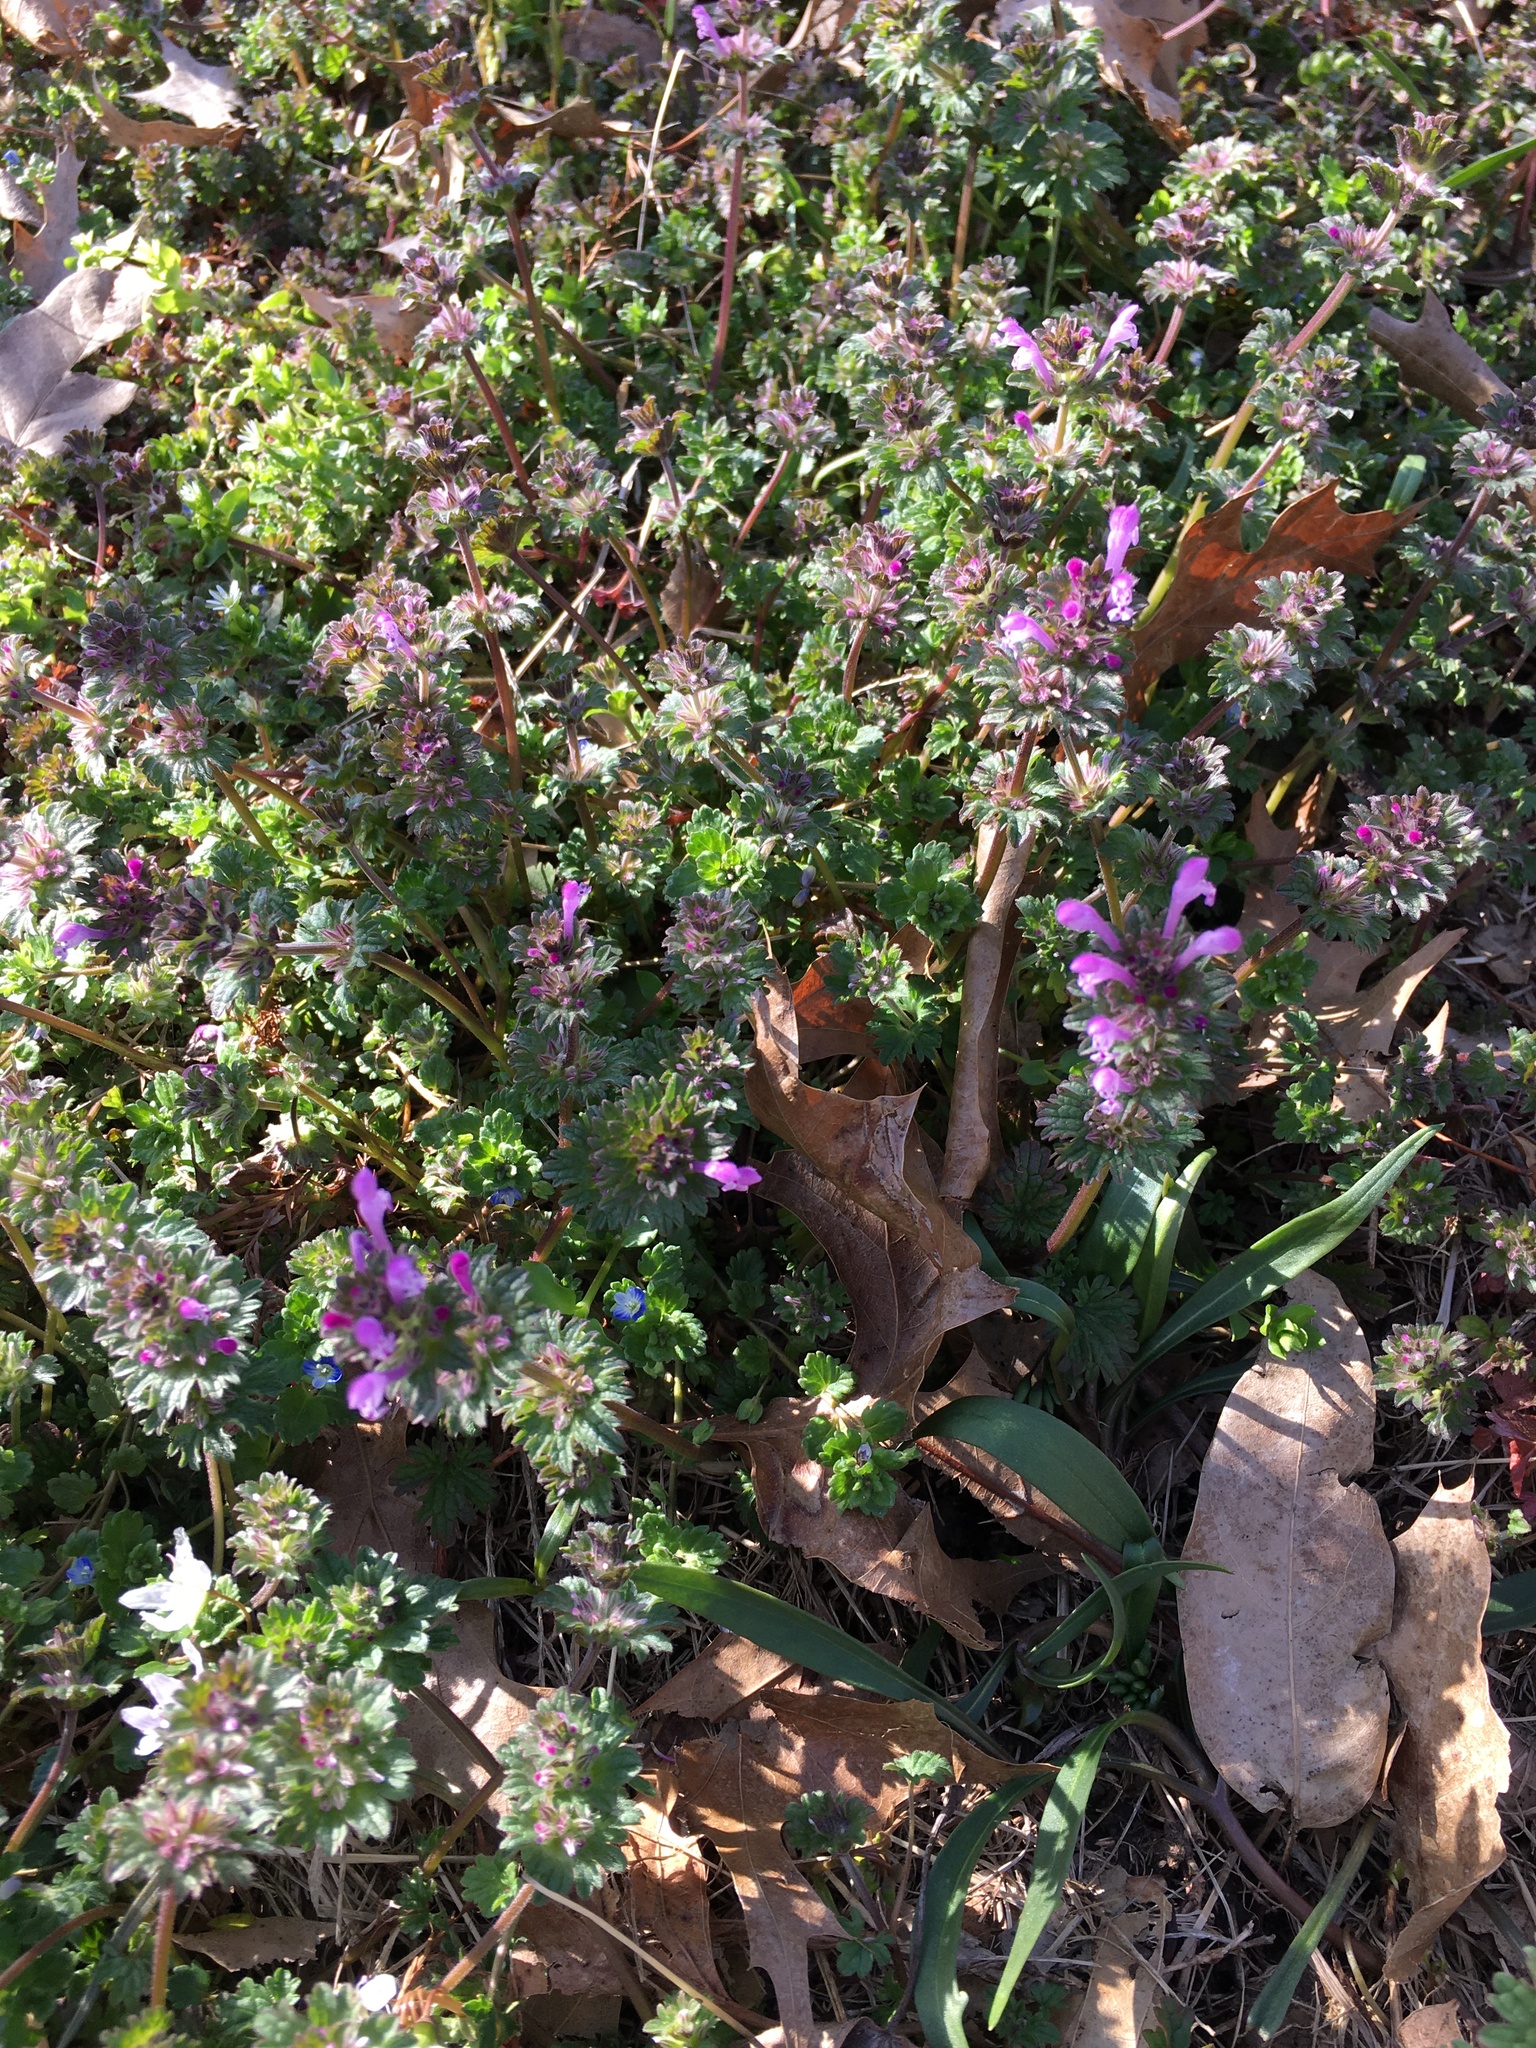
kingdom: Plantae
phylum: Tracheophyta
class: Magnoliopsida
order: Lamiales
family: Lamiaceae
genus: Lamium
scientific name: Lamium amplexicaule
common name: Henbit dead-nettle
